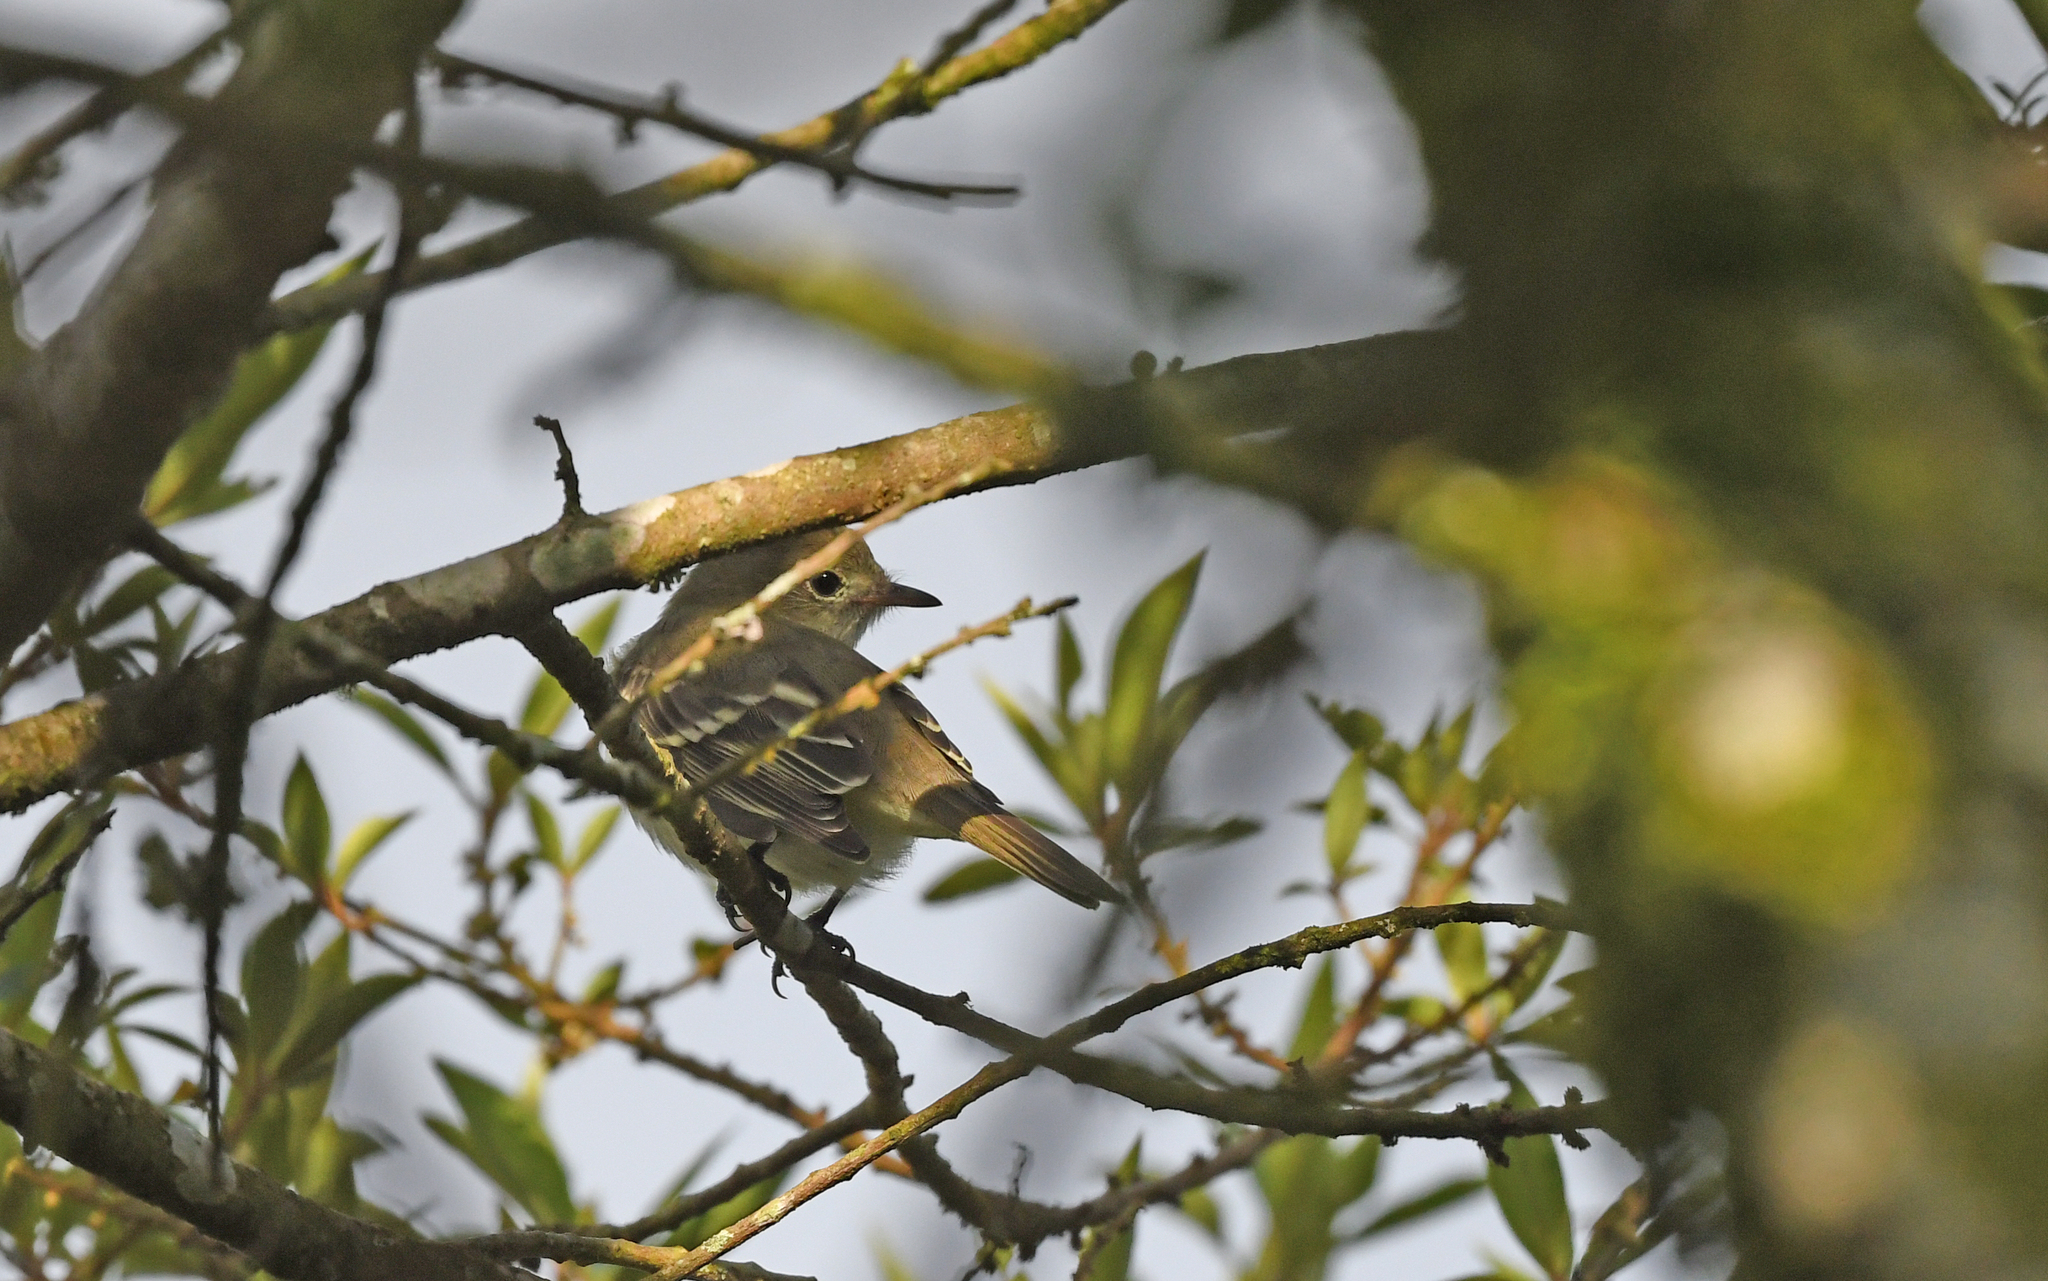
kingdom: Animalia
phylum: Chordata
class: Aves
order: Passeriformes
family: Tyrannidae
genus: Elaenia
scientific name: Elaenia frantzii
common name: Mountain elaenia
